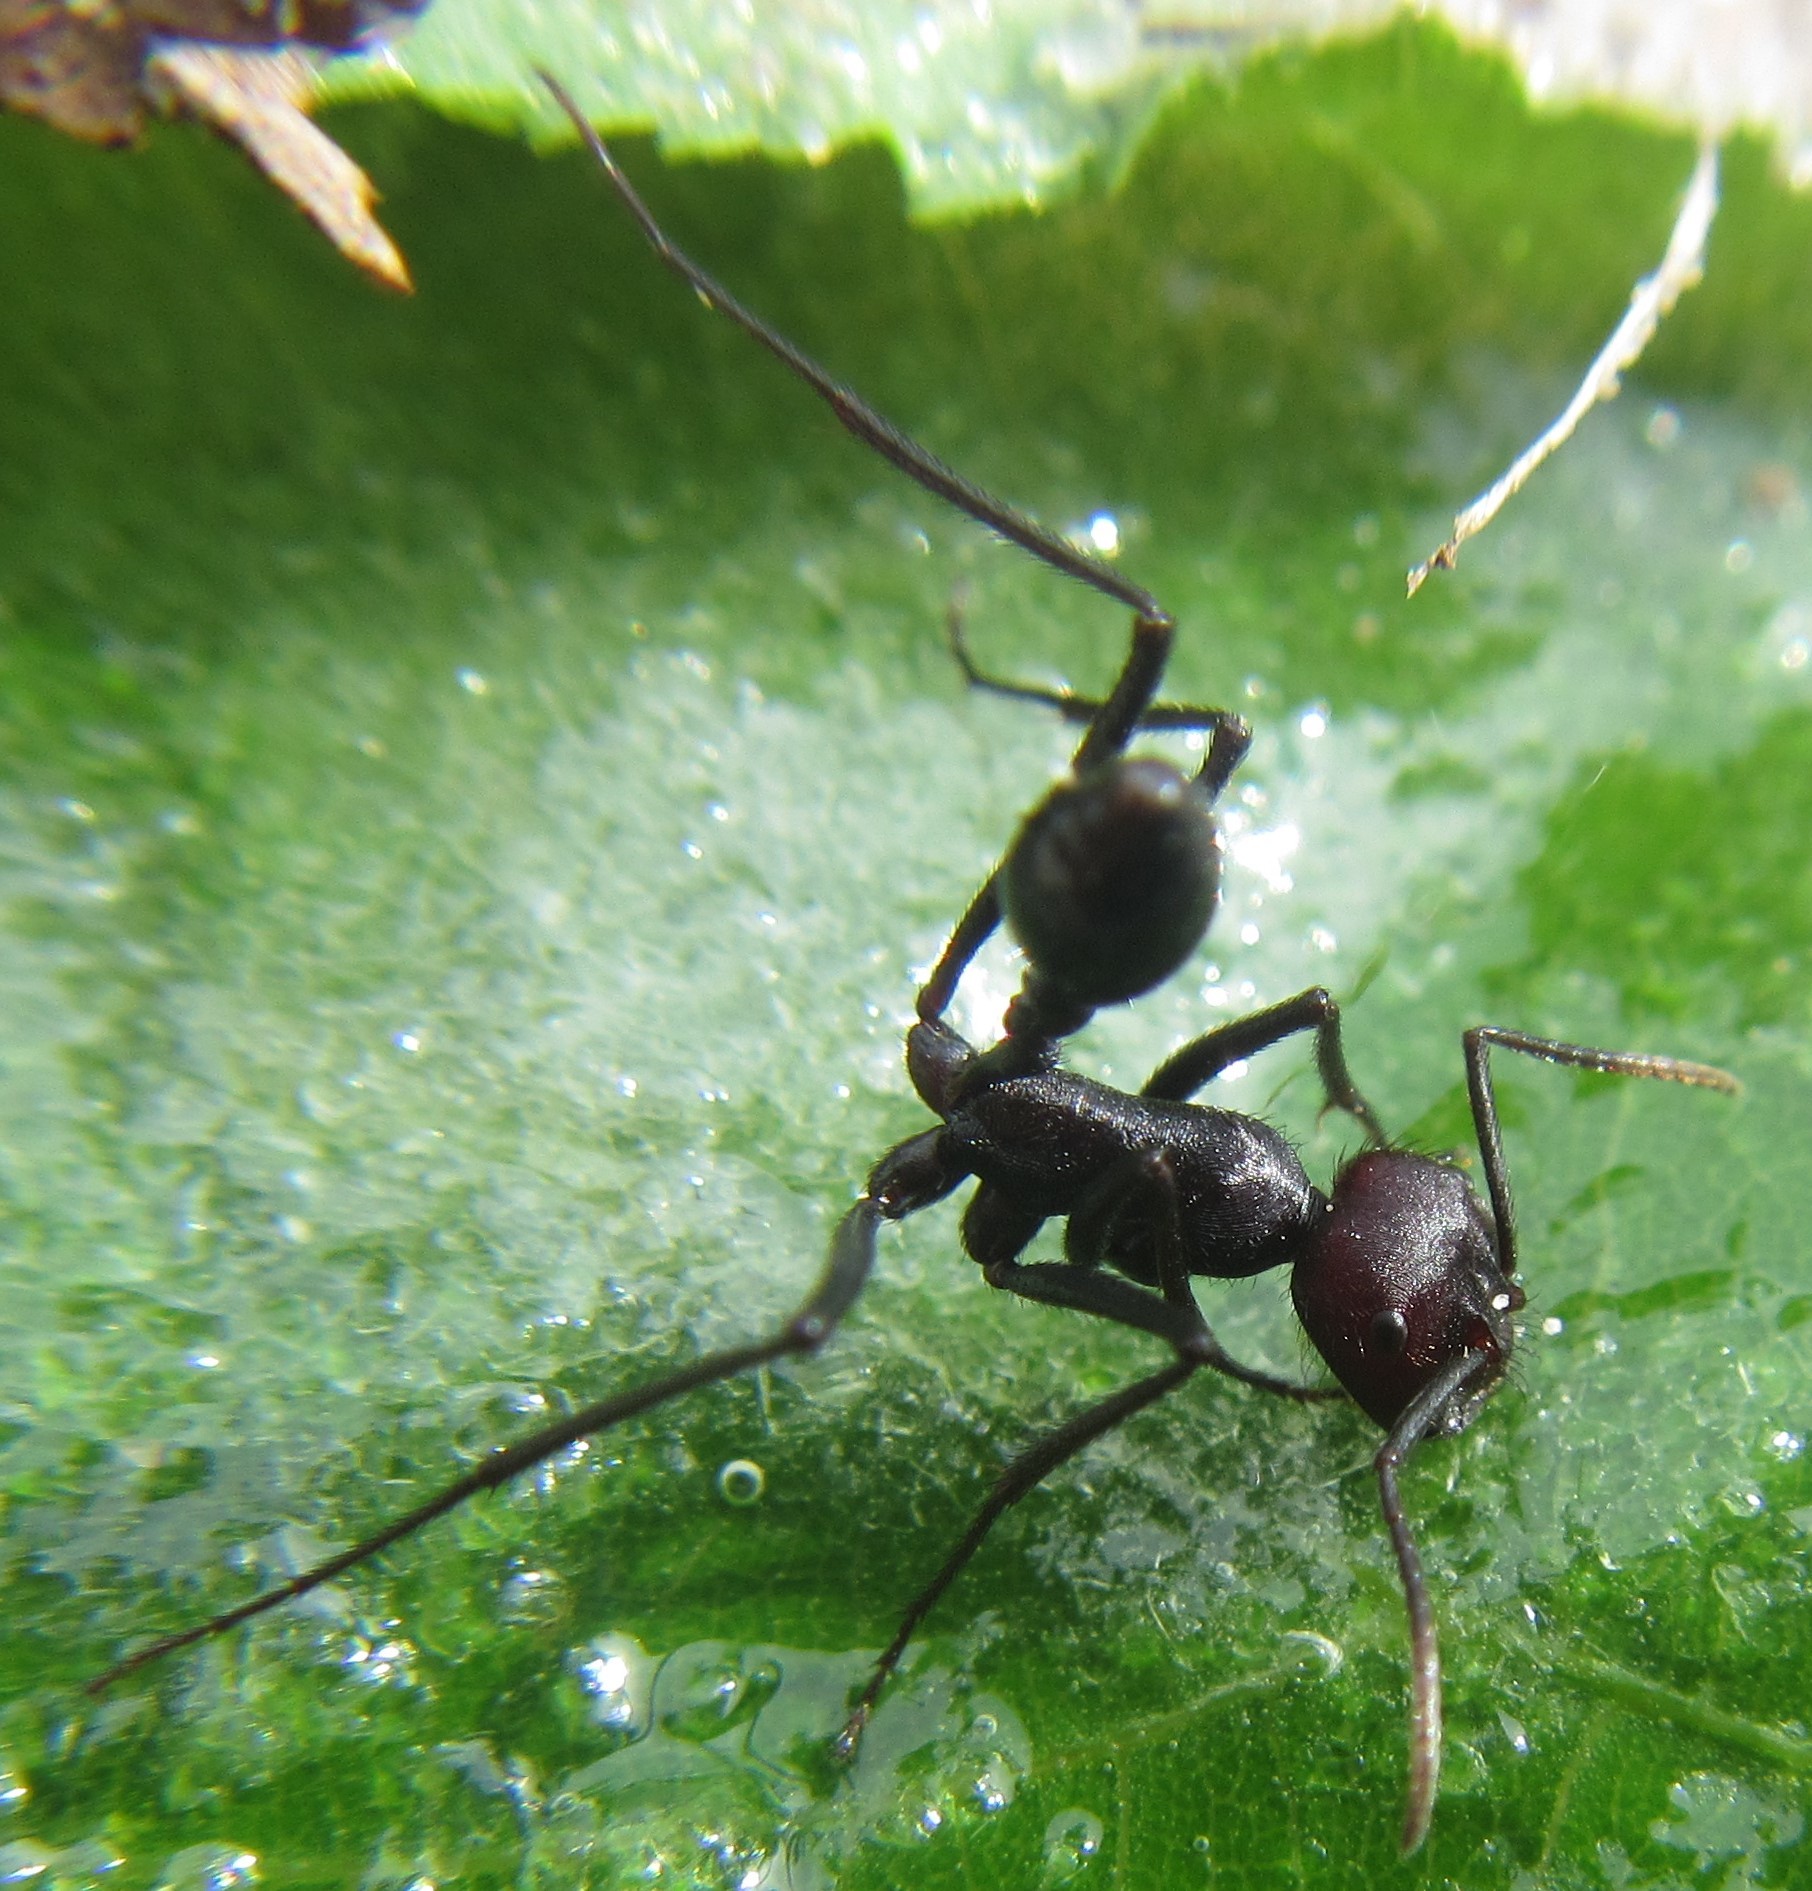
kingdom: Animalia
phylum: Arthropoda
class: Insecta
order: Hymenoptera
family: Formicidae
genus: Ocymyrmex
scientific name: Ocymyrmex velox
